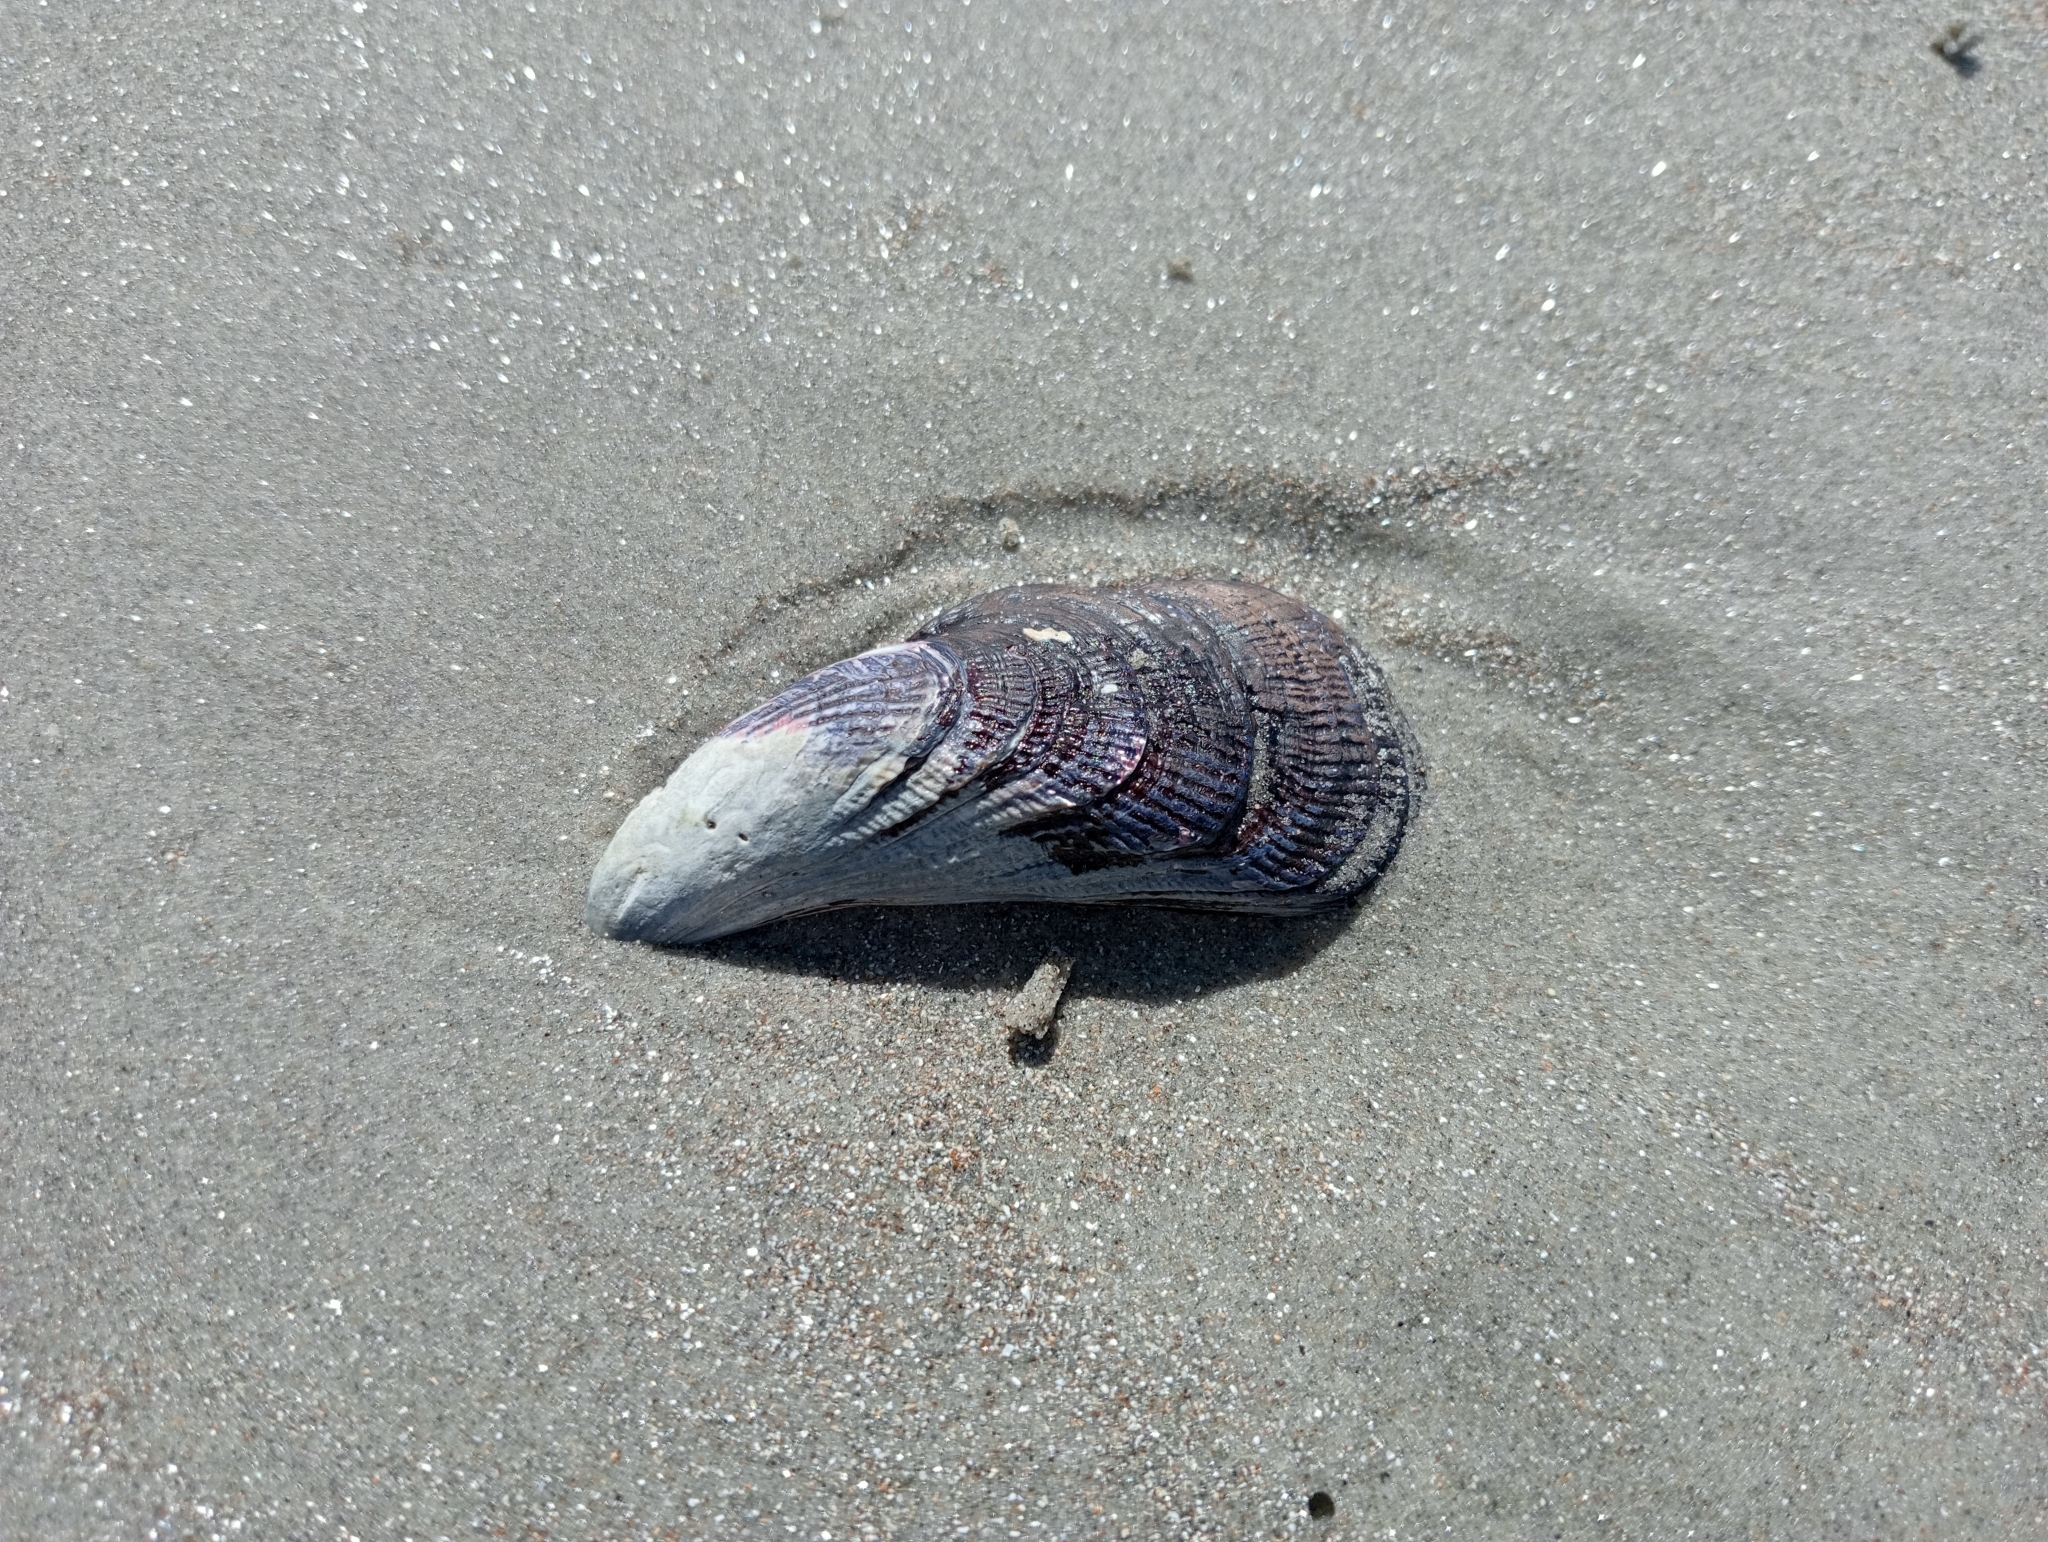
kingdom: Animalia
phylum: Mollusca
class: Bivalvia
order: Mytilida
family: Mytilidae
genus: Aulacomya
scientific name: Aulacomya maoriana
